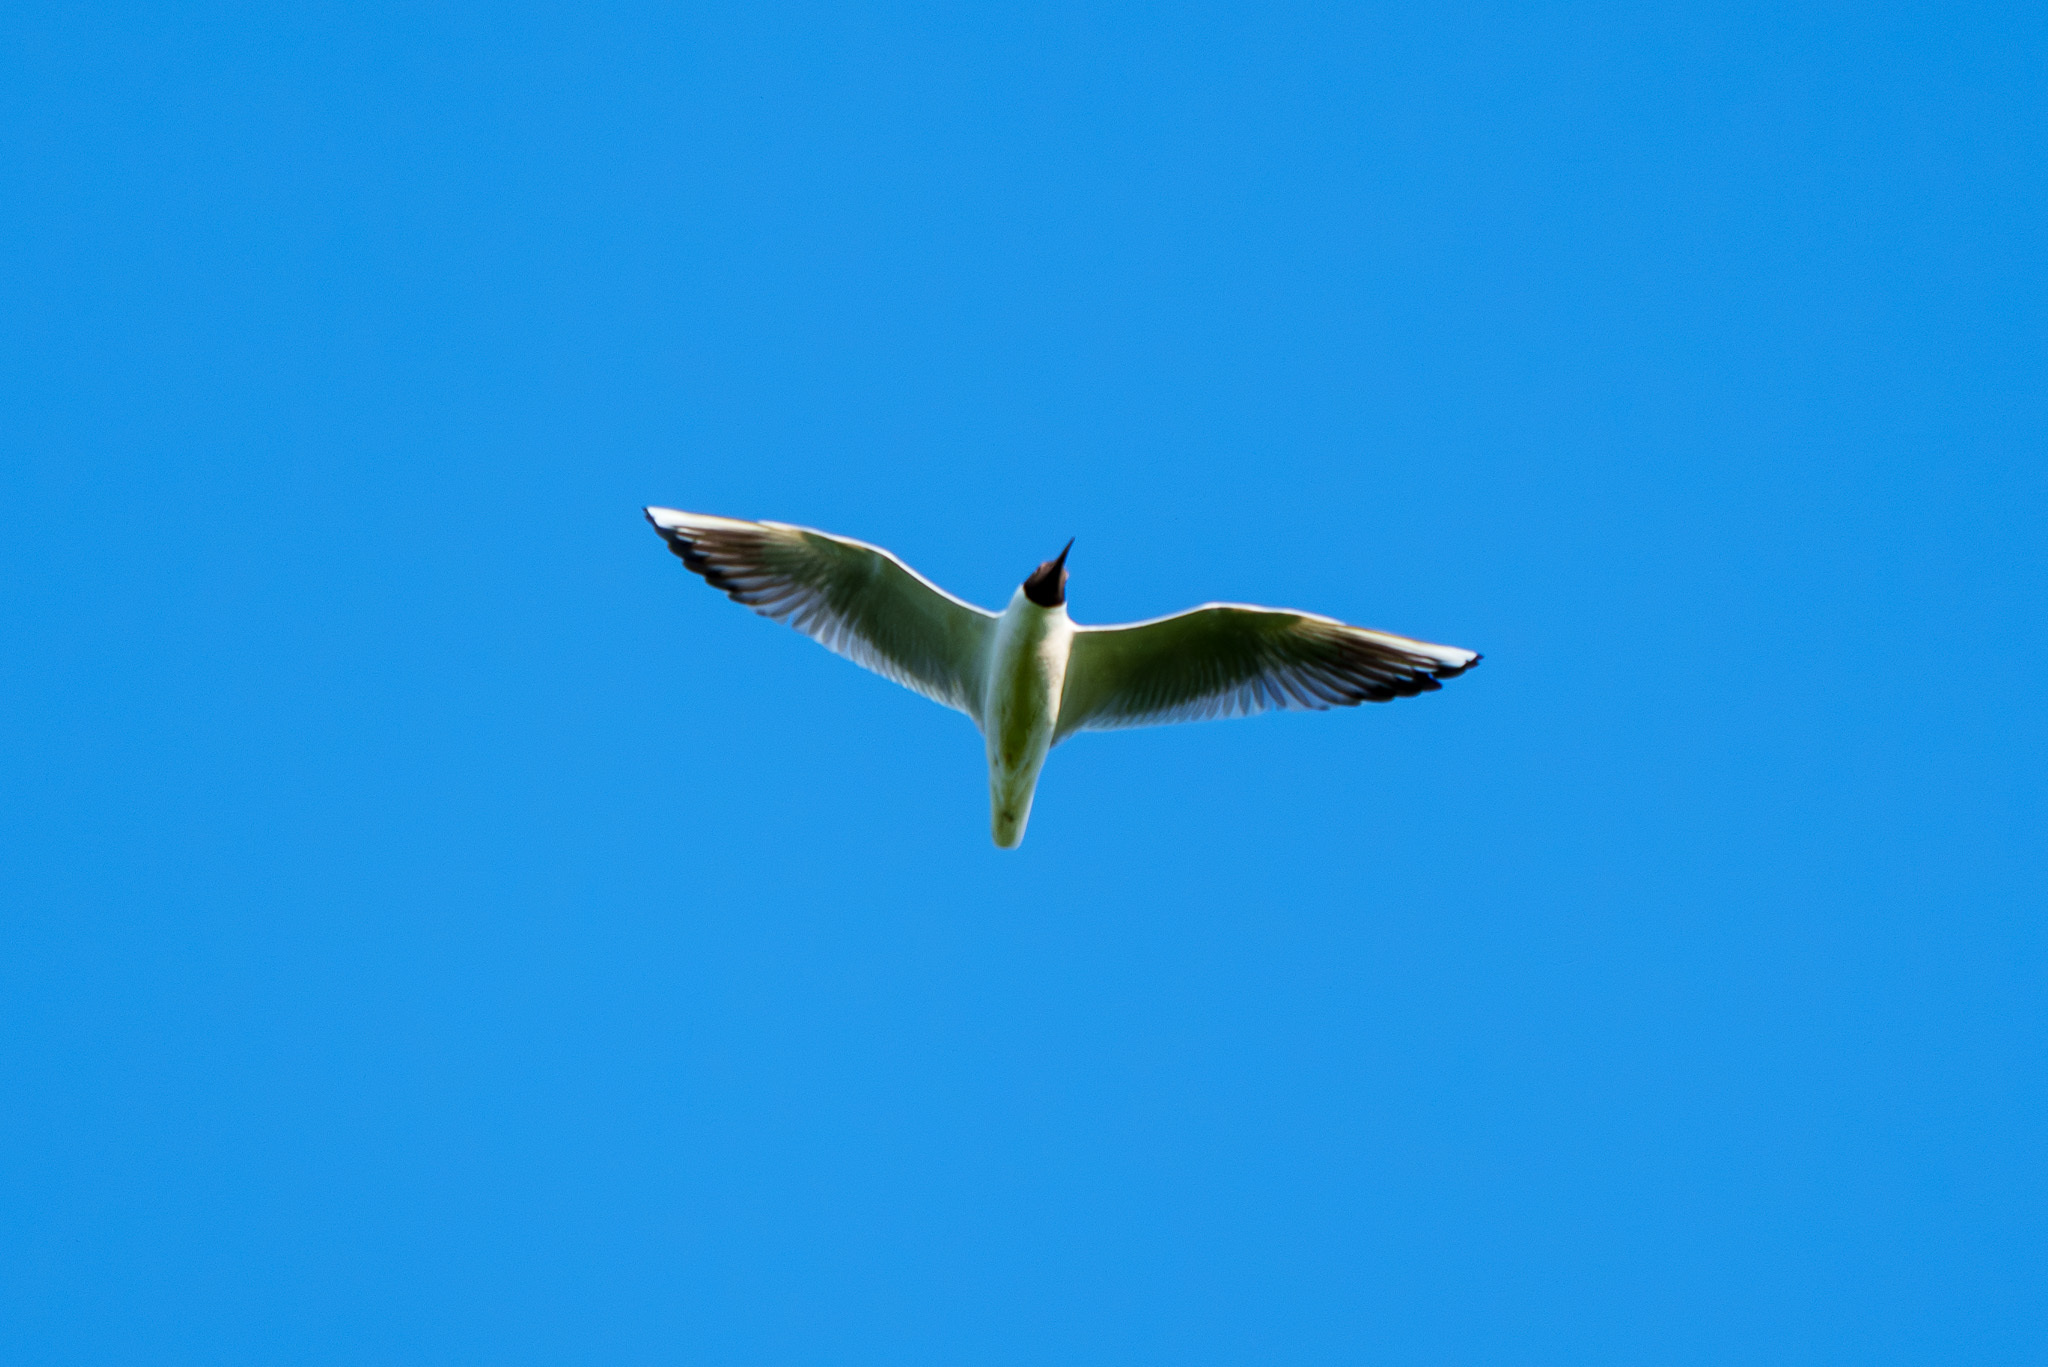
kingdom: Animalia
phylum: Chordata
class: Aves
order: Charadriiformes
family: Laridae
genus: Chroicocephalus
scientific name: Chroicocephalus ridibundus
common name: Black-headed gull
